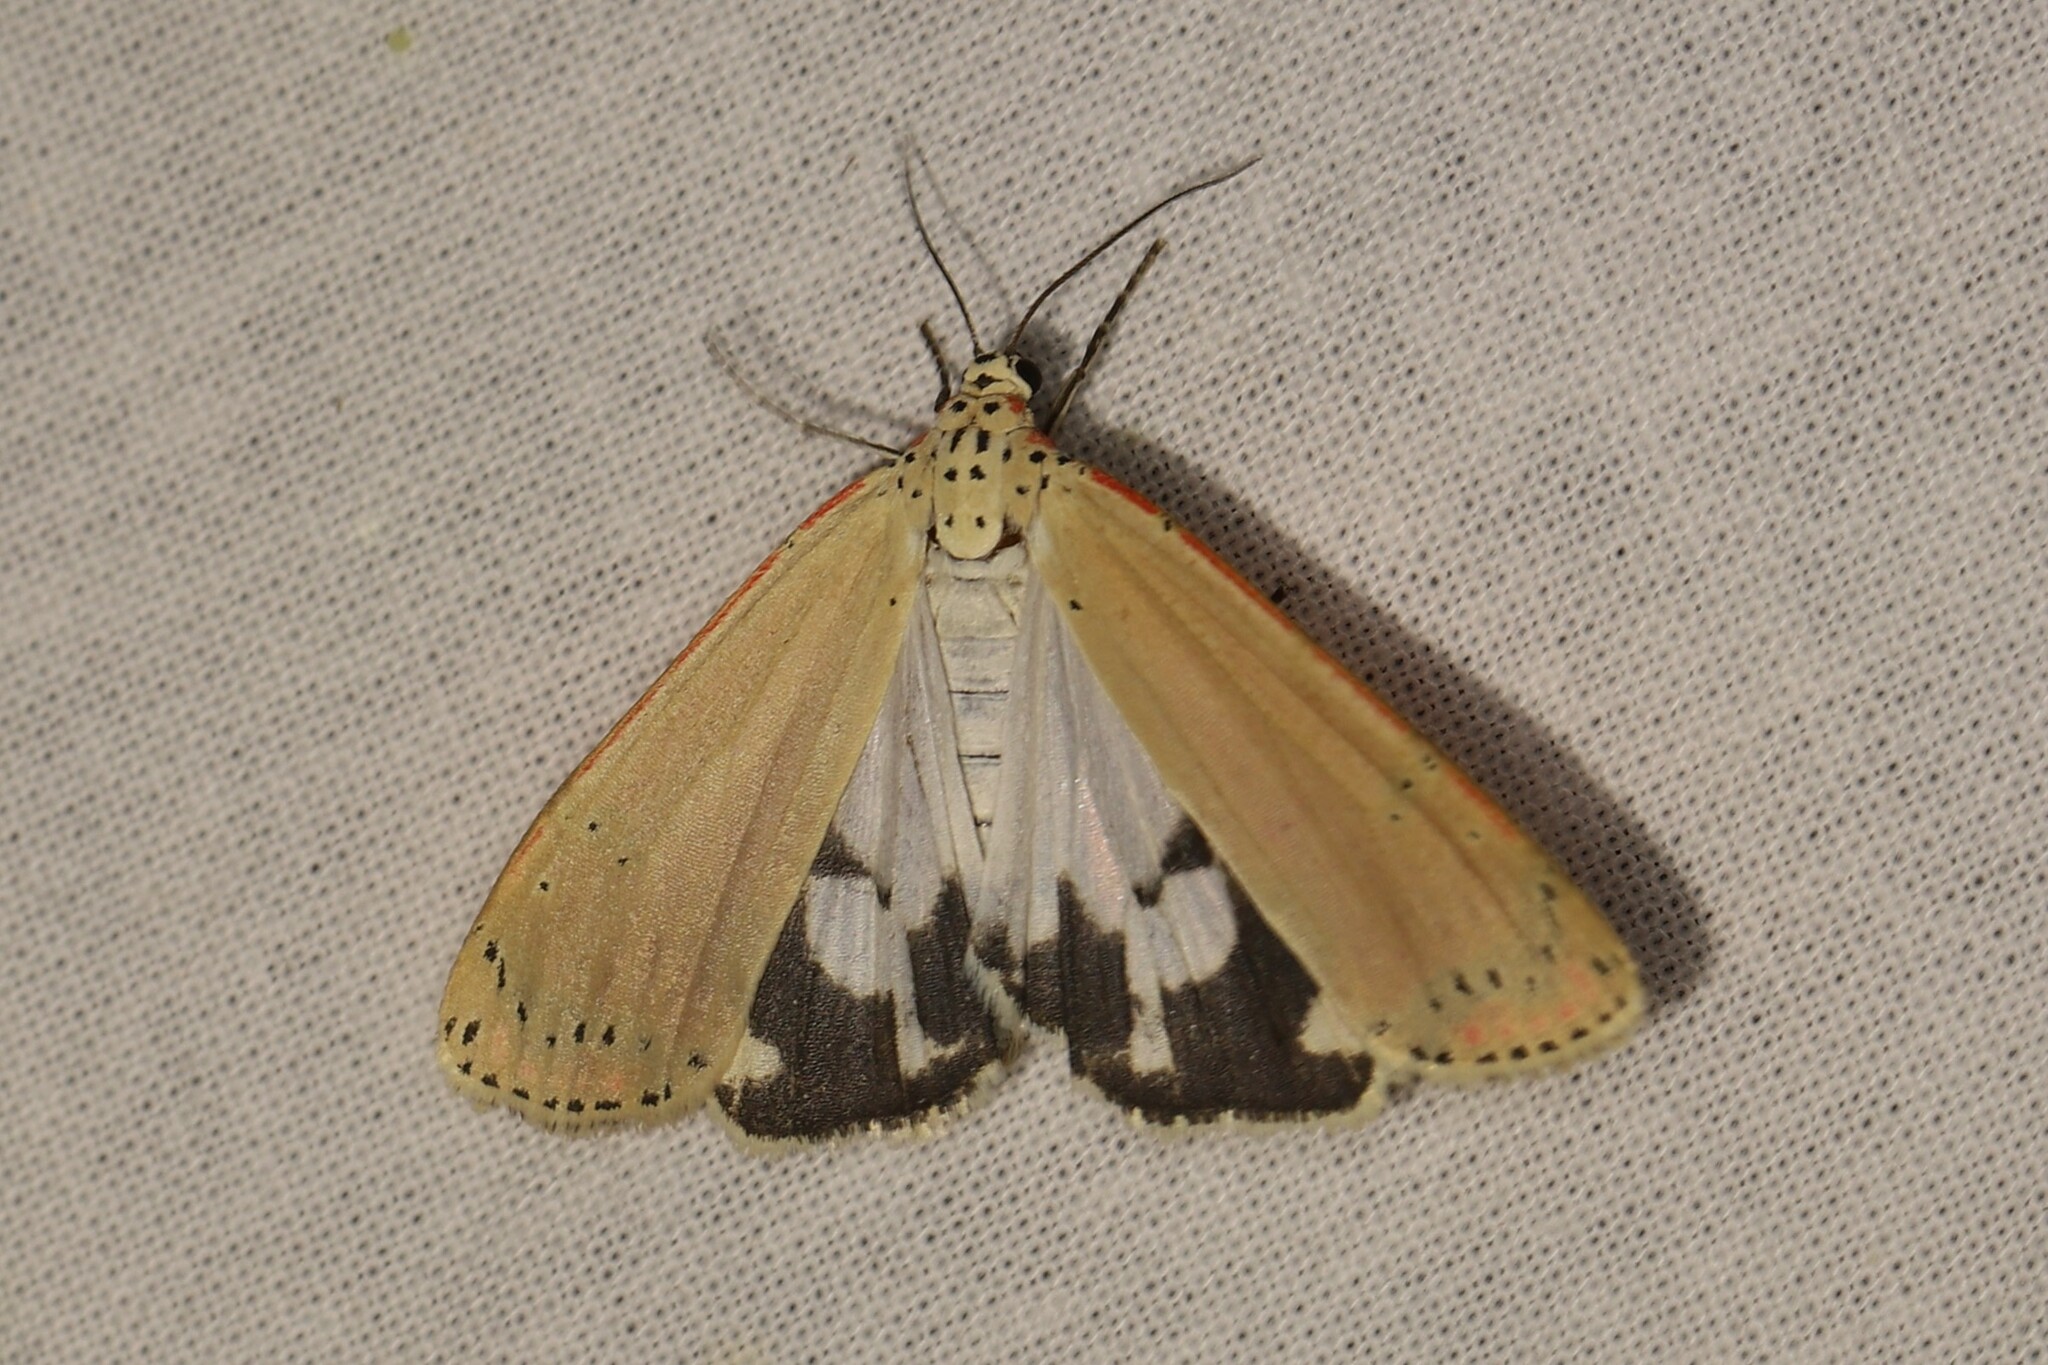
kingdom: Animalia
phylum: Arthropoda
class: Insecta
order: Lepidoptera
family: Erebidae
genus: Utetheisa
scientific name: Utetheisa ornatrix
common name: Beautiful utetheisa
